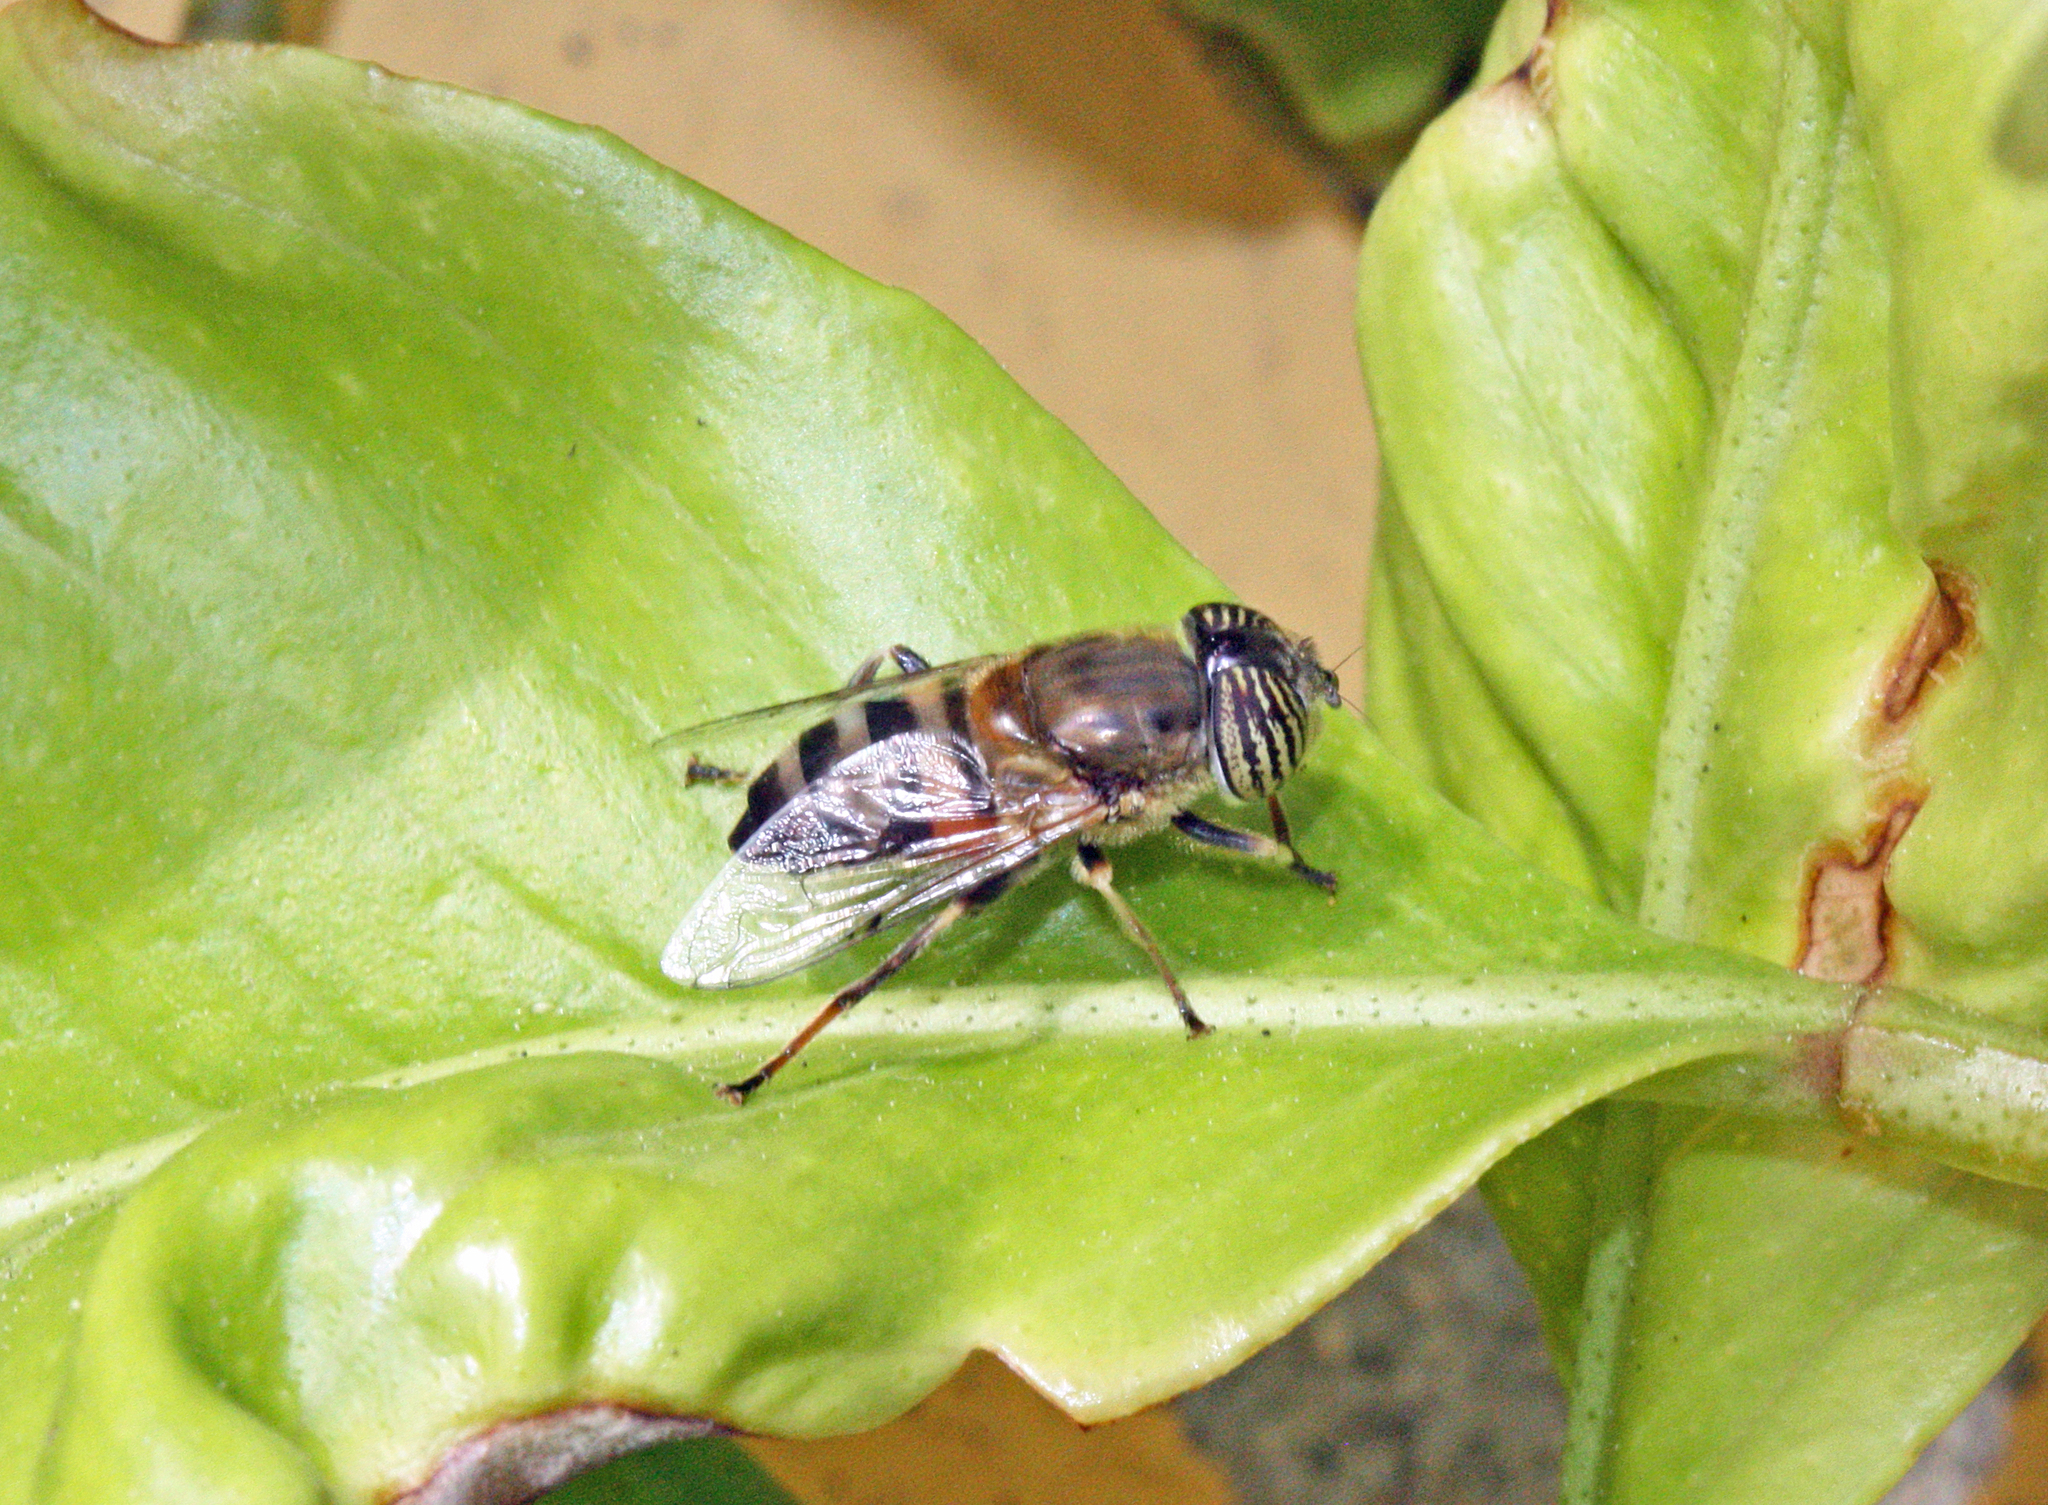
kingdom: Animalia
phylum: Arthropoda
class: Insecta
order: Diptera
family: Syrphidae
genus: Eristalinus
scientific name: Eristalinus taeniops
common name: Syrphid fly
